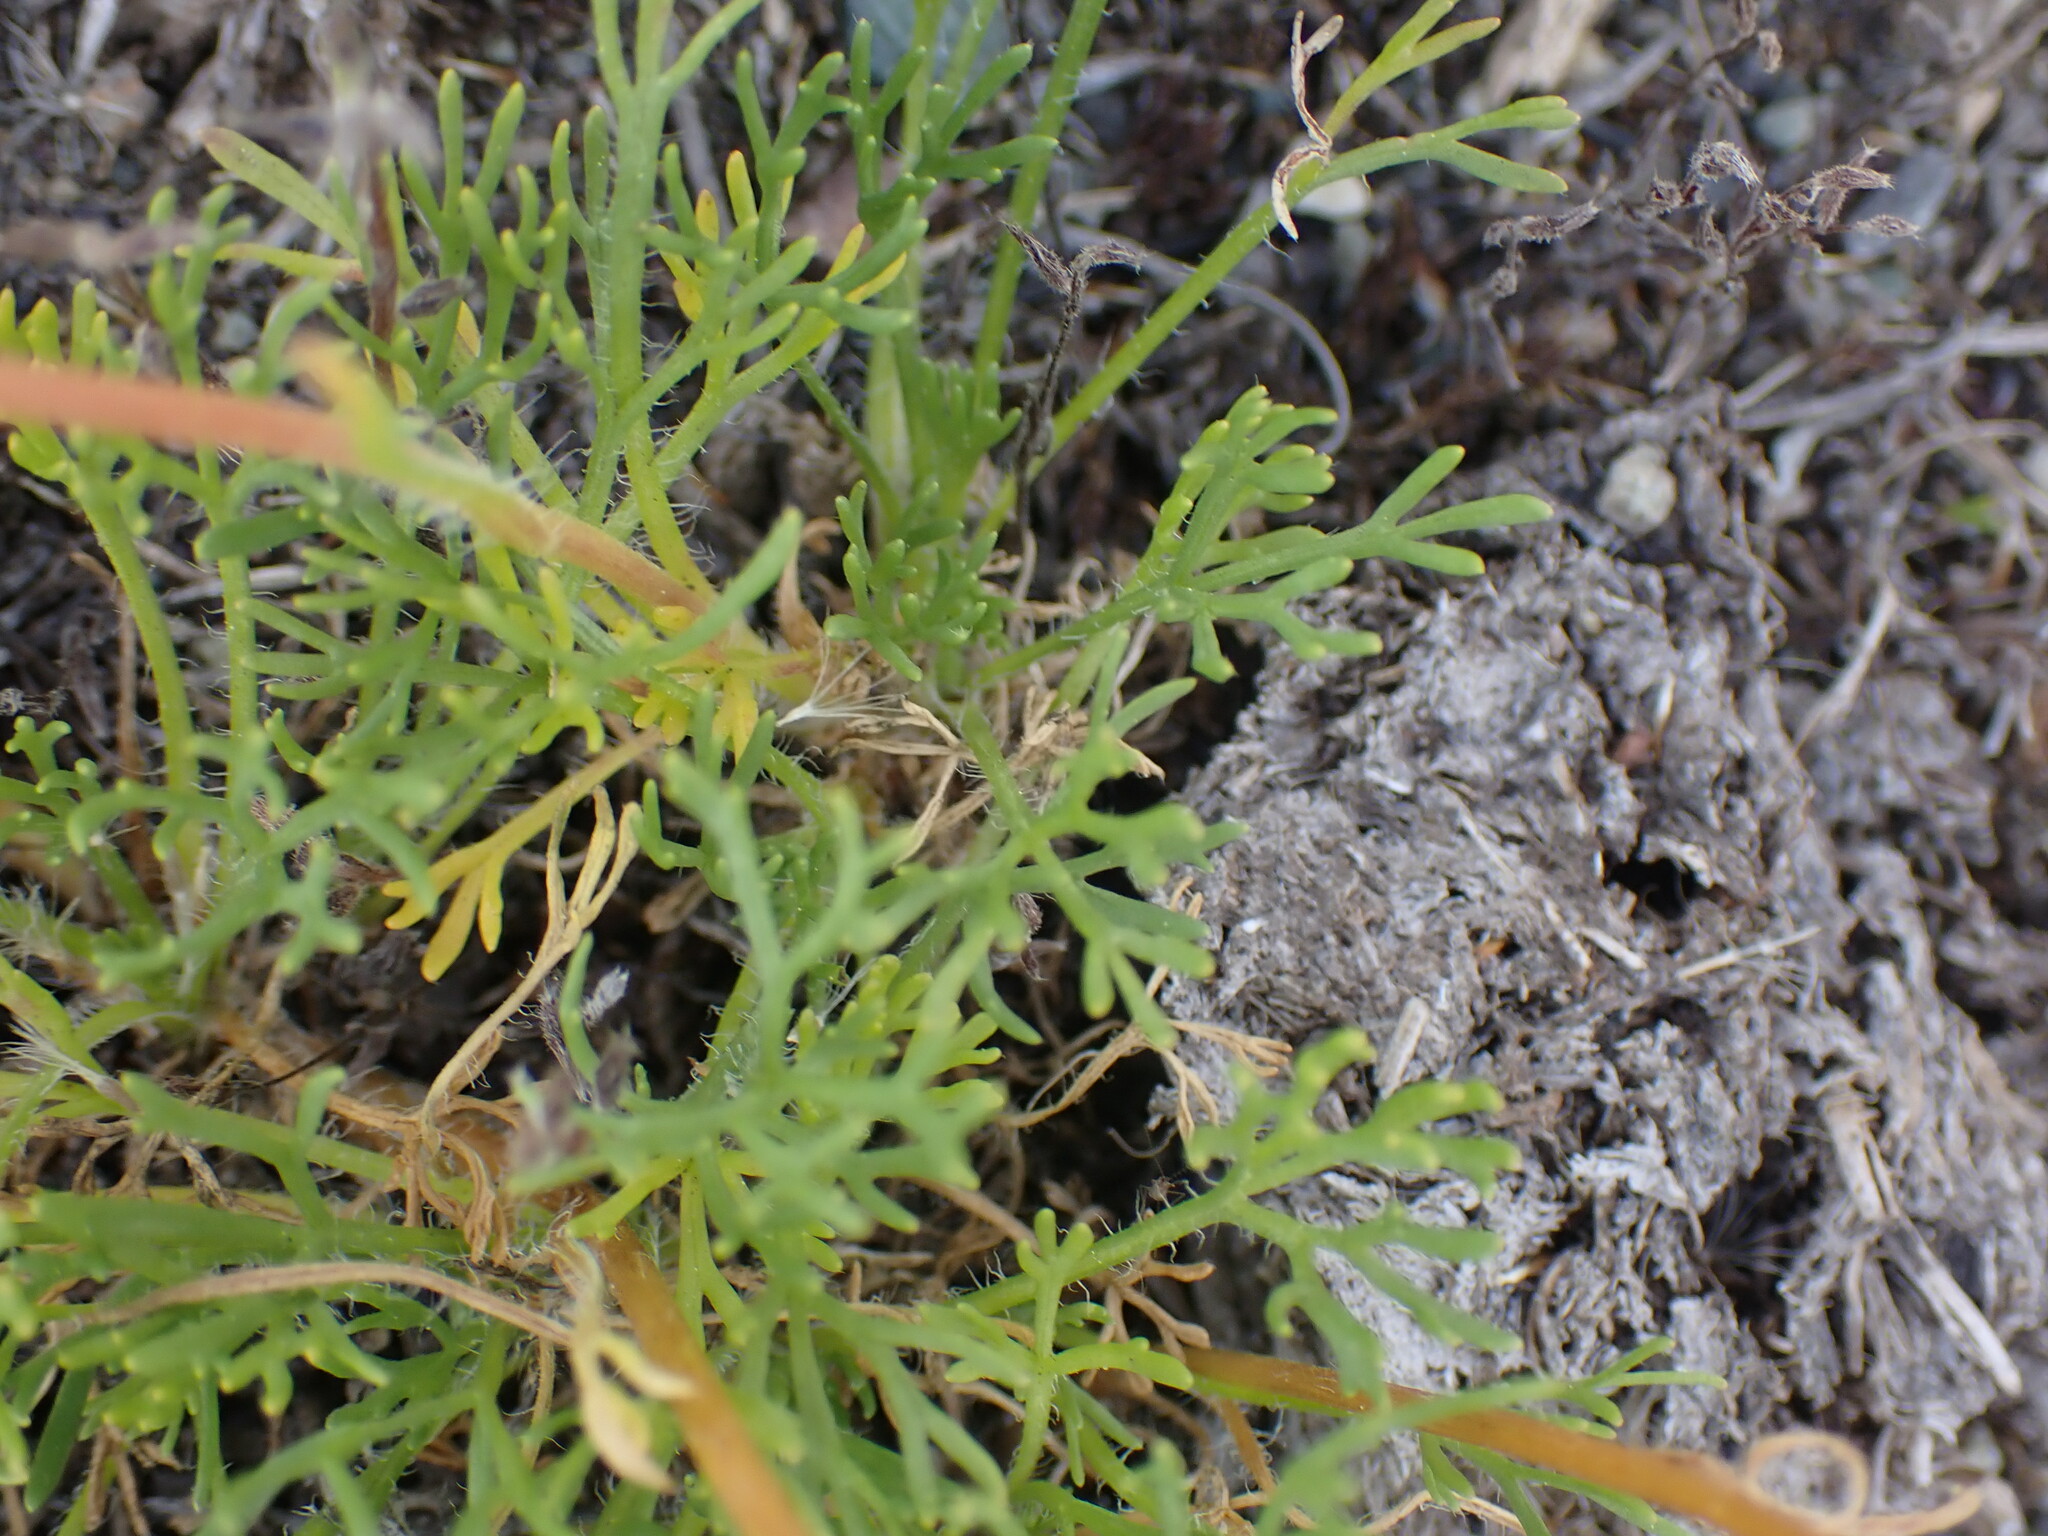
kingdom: Plantae
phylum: Tracheophyta
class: Magnoliopsida
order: Asterales
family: Asteraceae
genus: Erigeron
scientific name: Erigeron compositus
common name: Dwarf mountain fleabane
